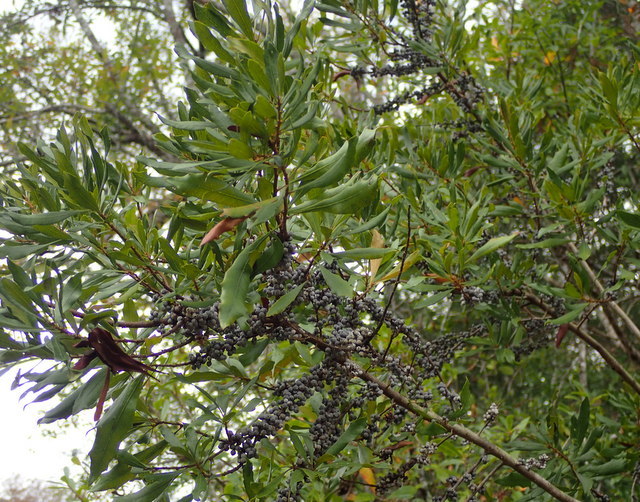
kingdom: Plantae
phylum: Tracheophyta
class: Magnoliopsida
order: Fagales
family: Myricaceae
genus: Morella
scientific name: Morella cerifera
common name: Wax myrtle
